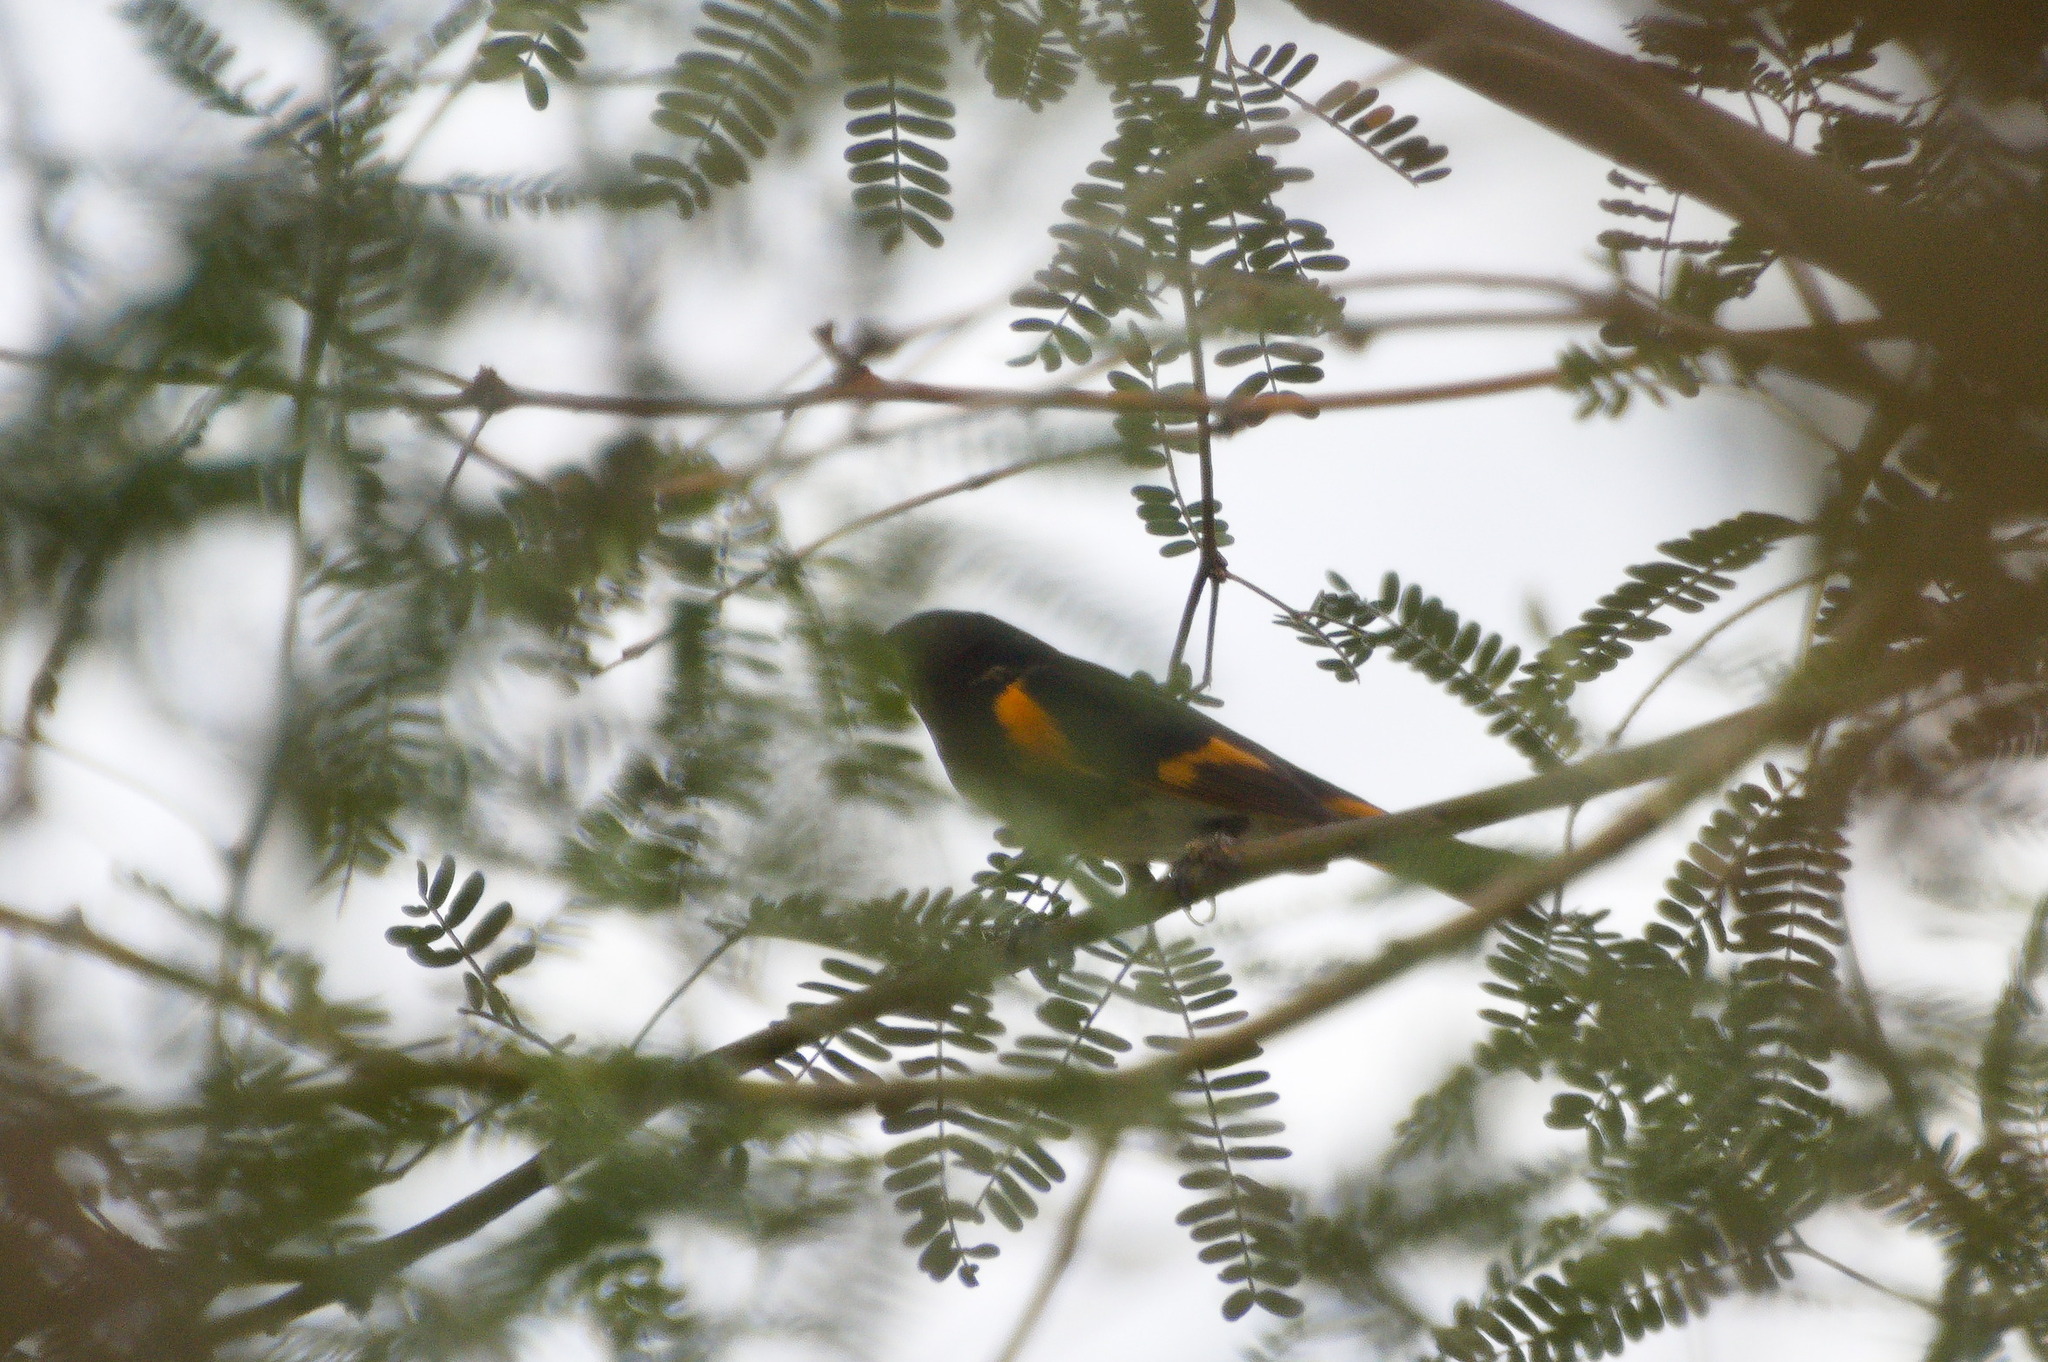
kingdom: Animalia
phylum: Chordata
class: Aves
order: Passeriformes
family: Parulidae
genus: Setophaga
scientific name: Setophaga ruticilla
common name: American redstart
